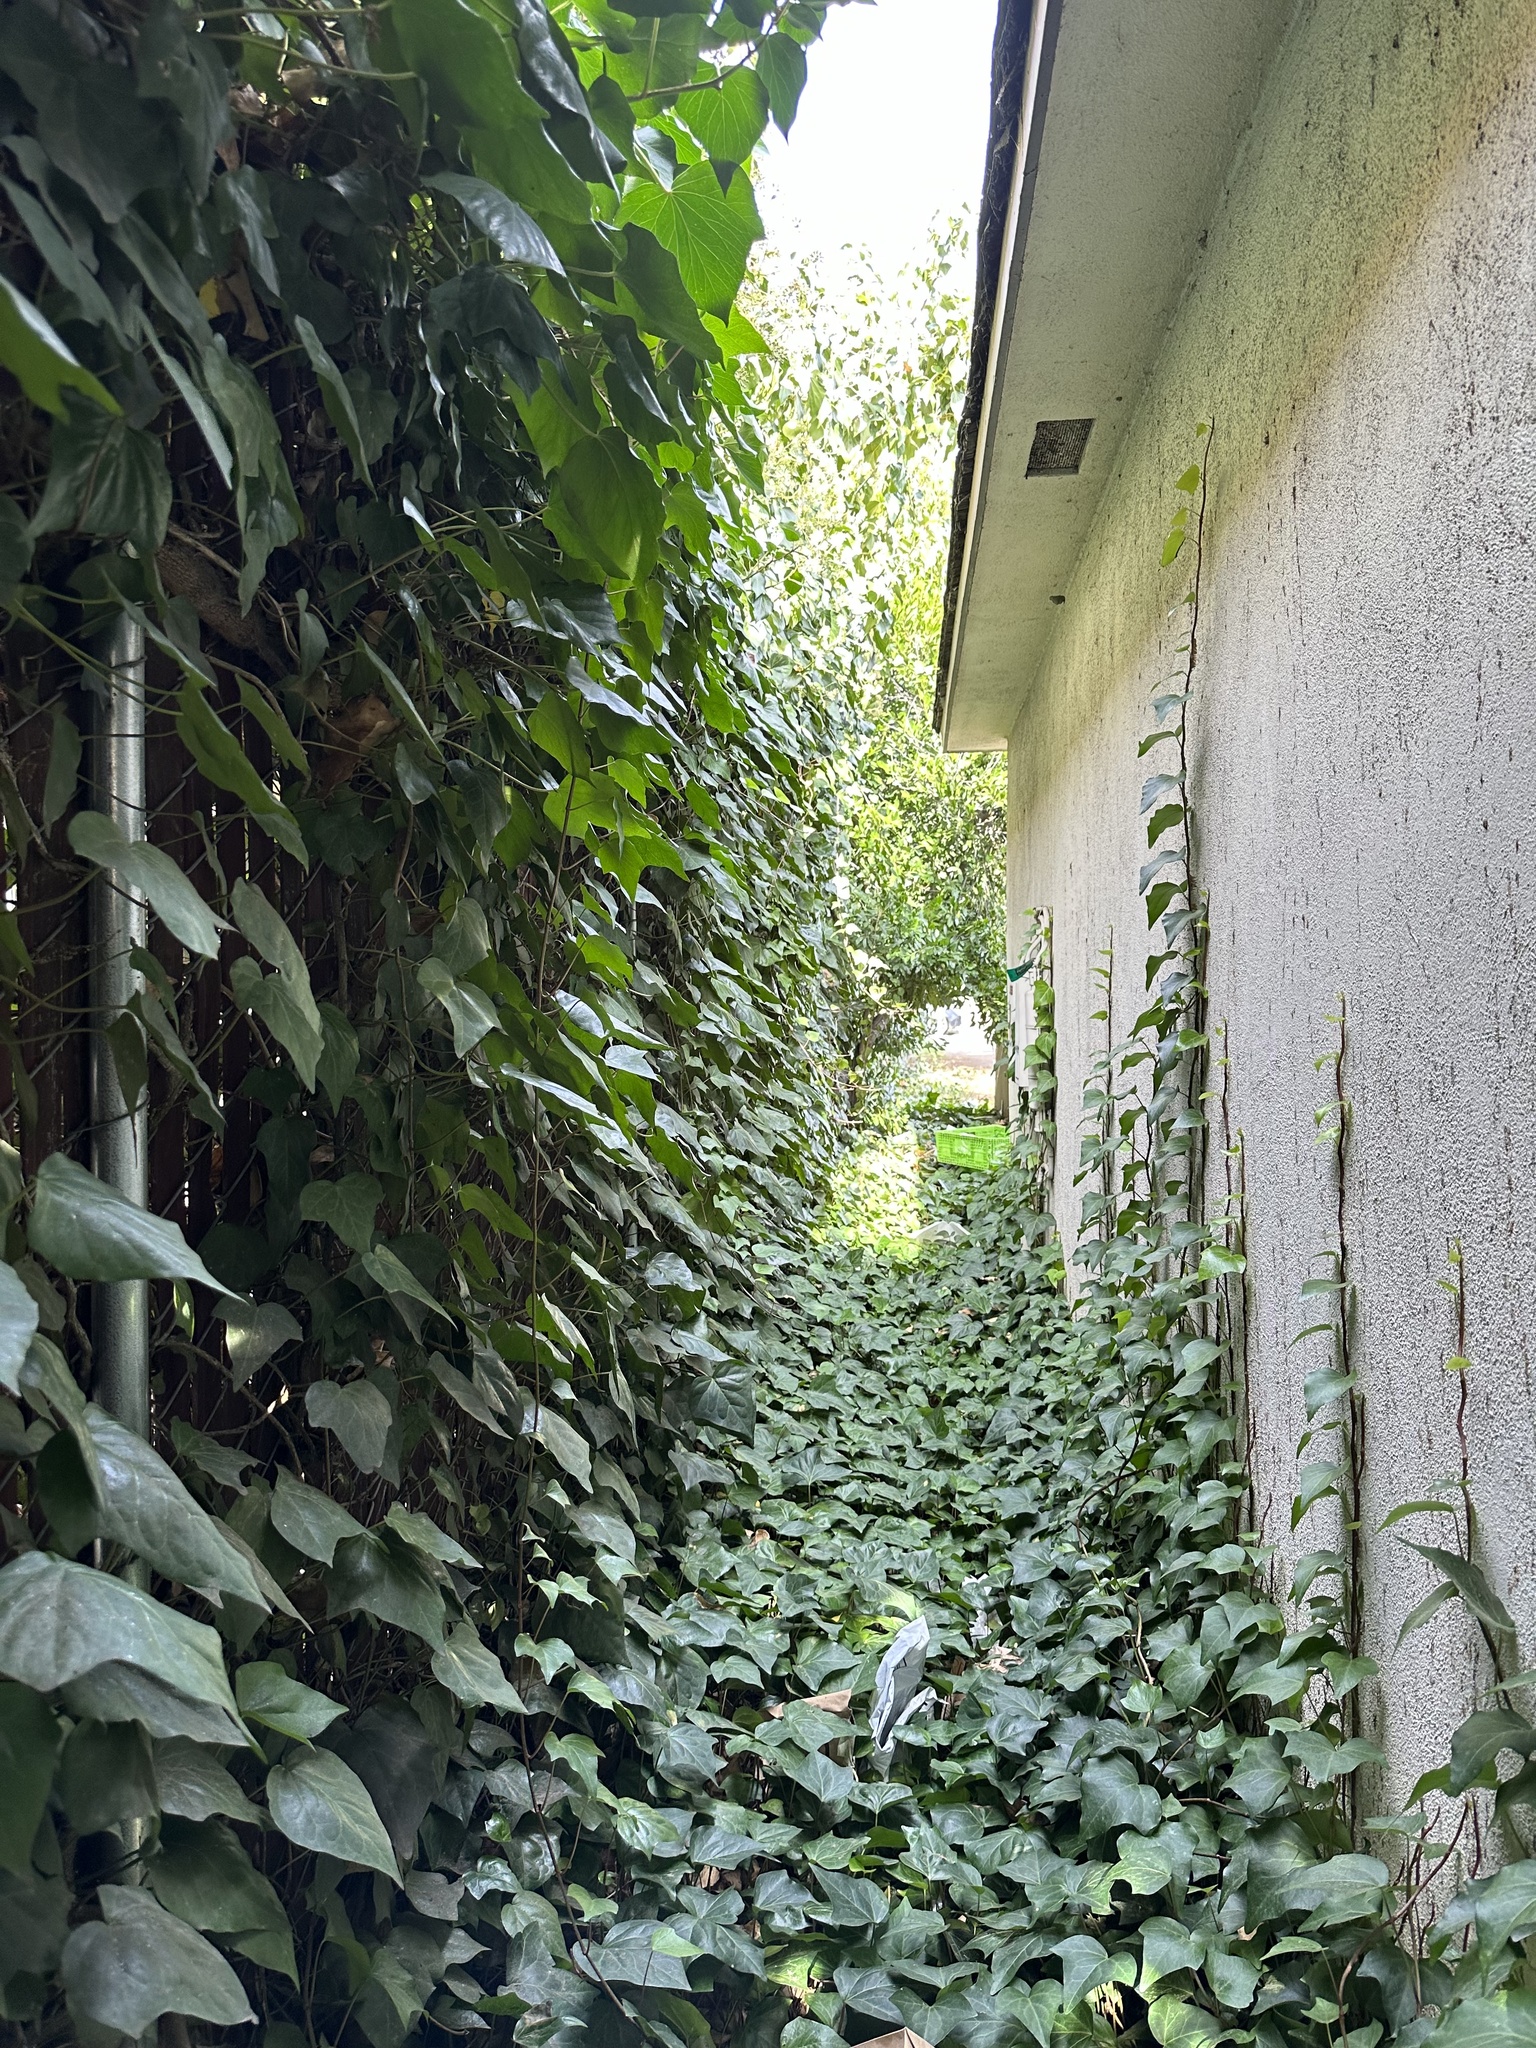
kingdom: Plantae
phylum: Tracheophyta
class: Magnoliopsida
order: Apiales
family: Araliaceae
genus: Hedera
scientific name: Hedera canariensis
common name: Madeira ivy
